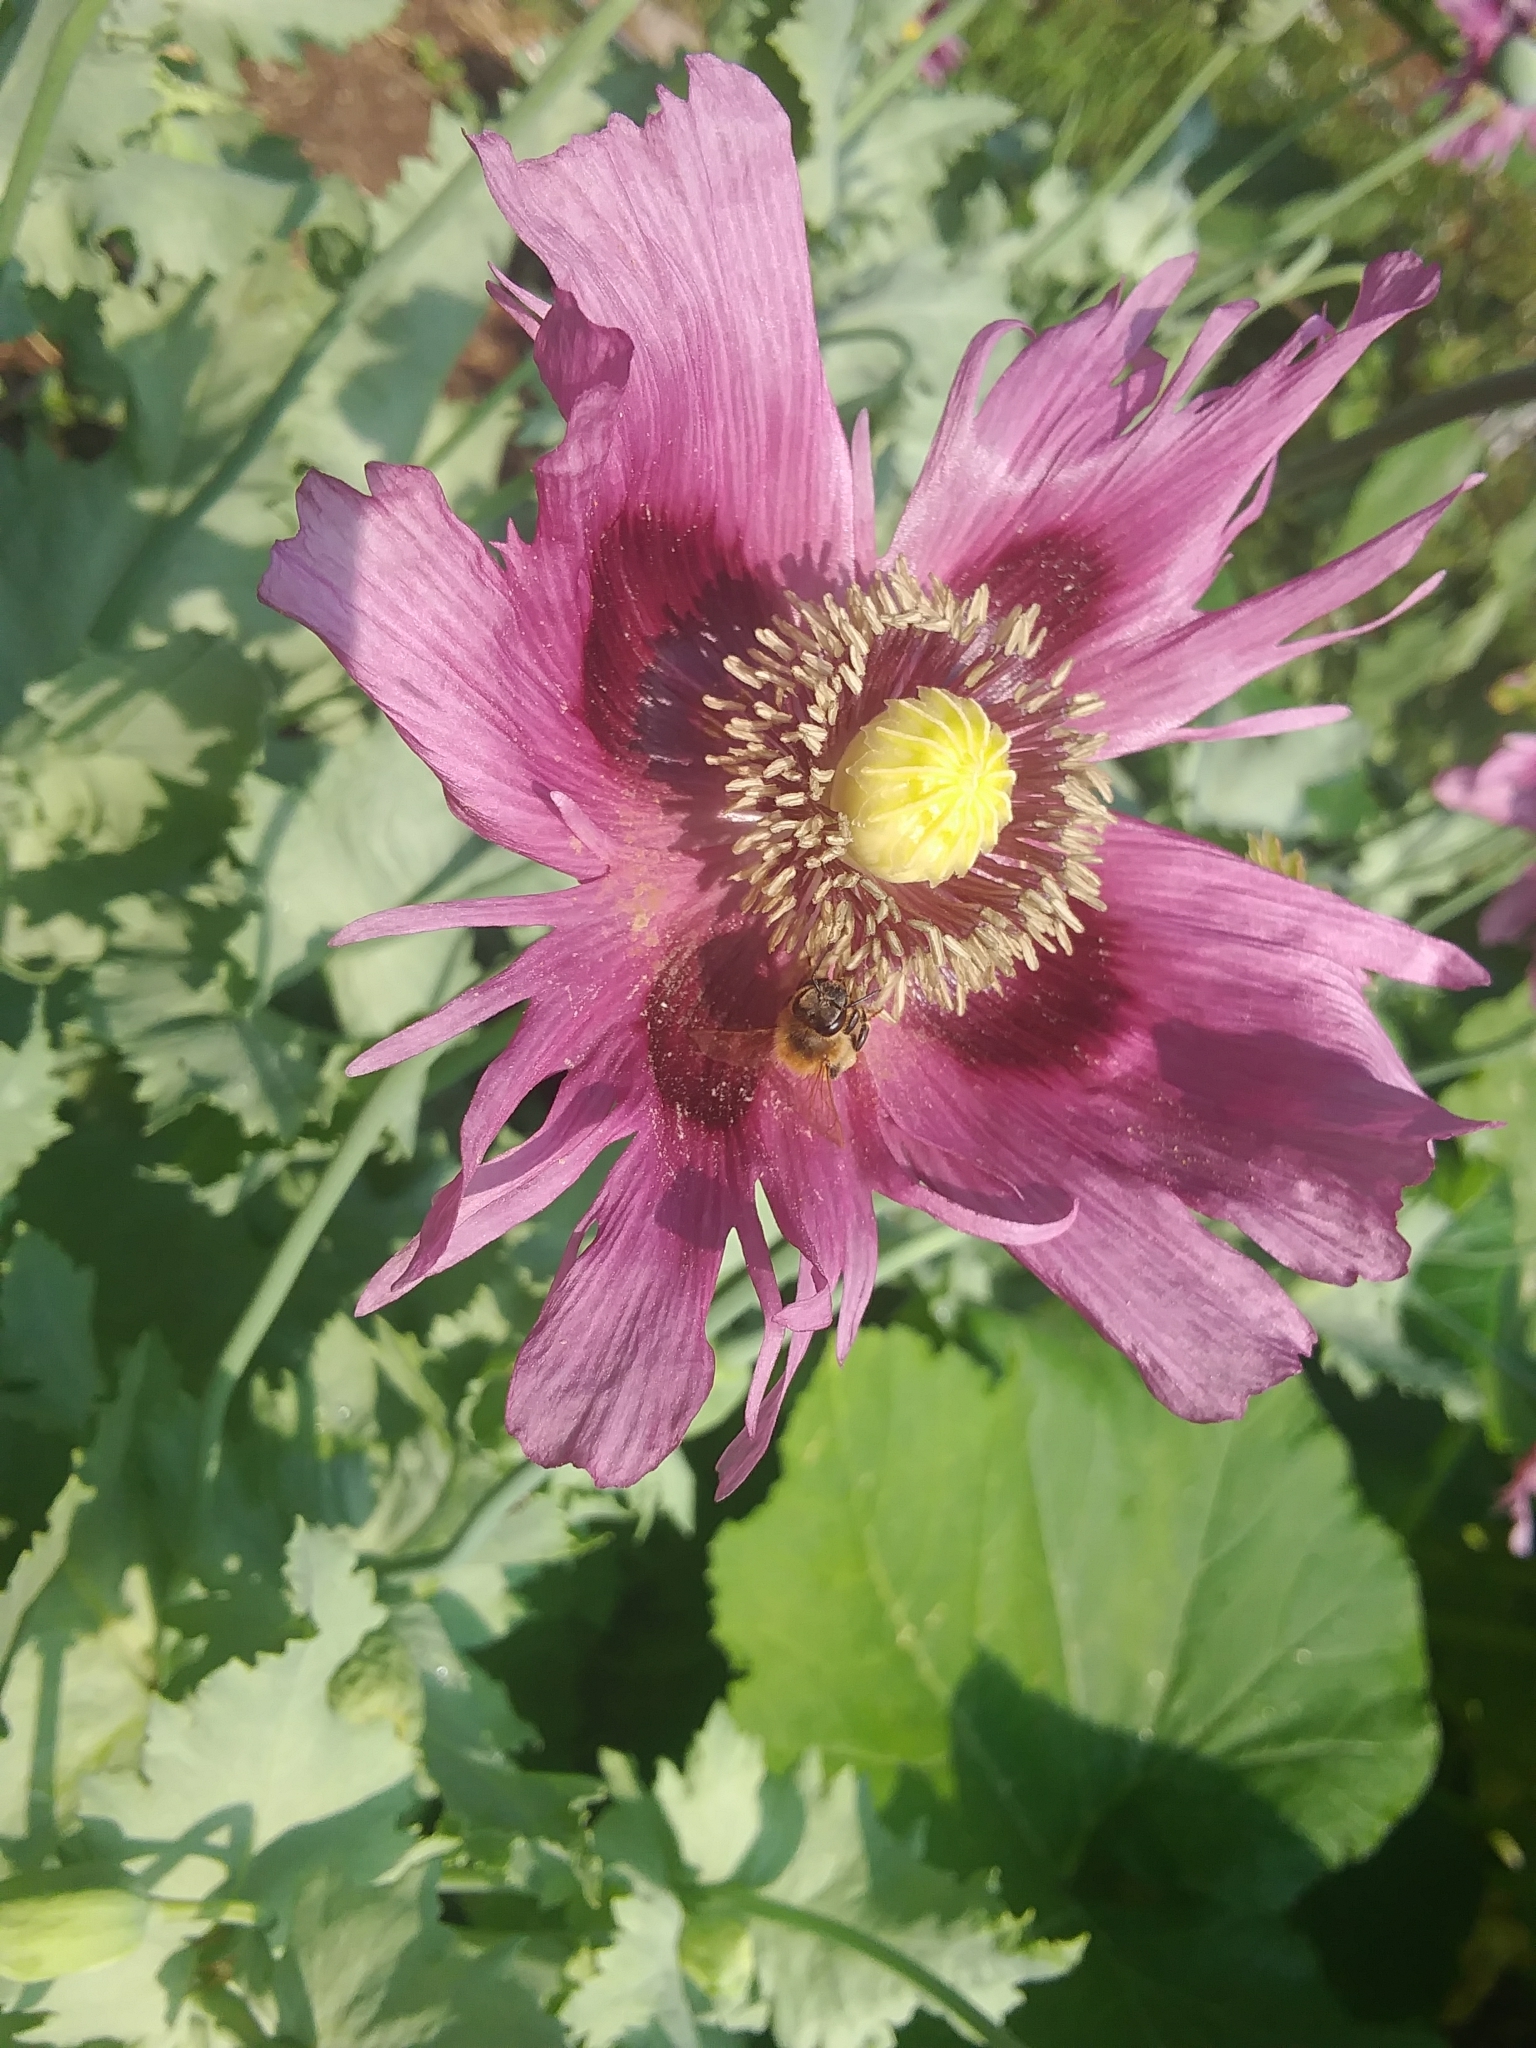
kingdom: Animalia
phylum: Arthropoda
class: Insecta
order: Hymenoptera
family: Apidae
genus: Apis
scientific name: Apis mellifera
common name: Honey bee
